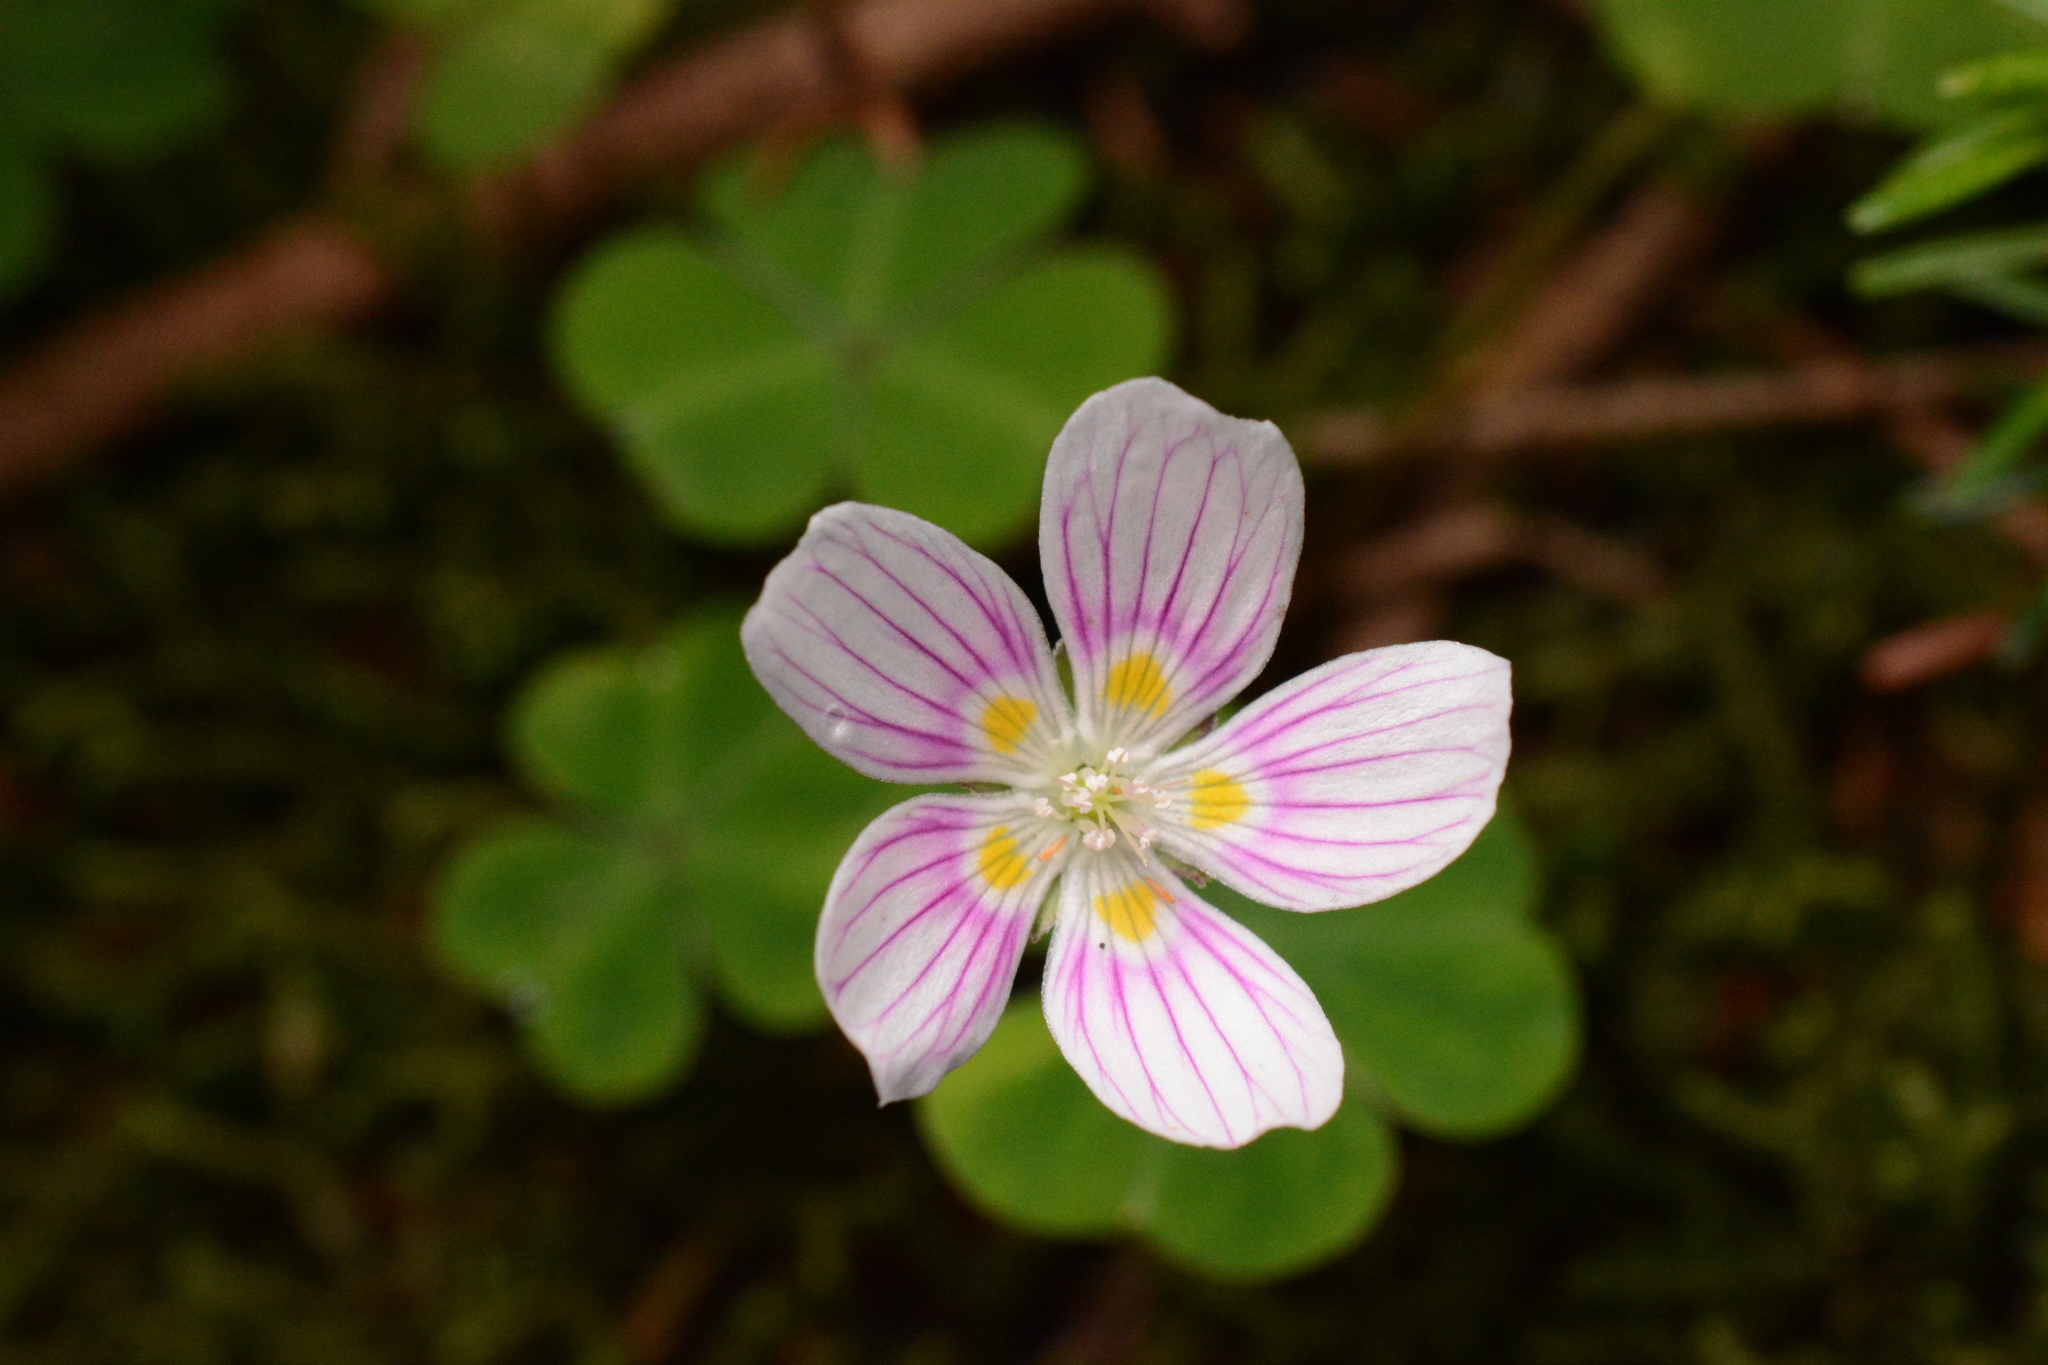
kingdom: Plantae
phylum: Tracheophyta
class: Magnoliopsida
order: Oxalidales
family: Oxalidaceae
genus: Oxalis
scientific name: Oxalis montana
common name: American wood-sorrel
